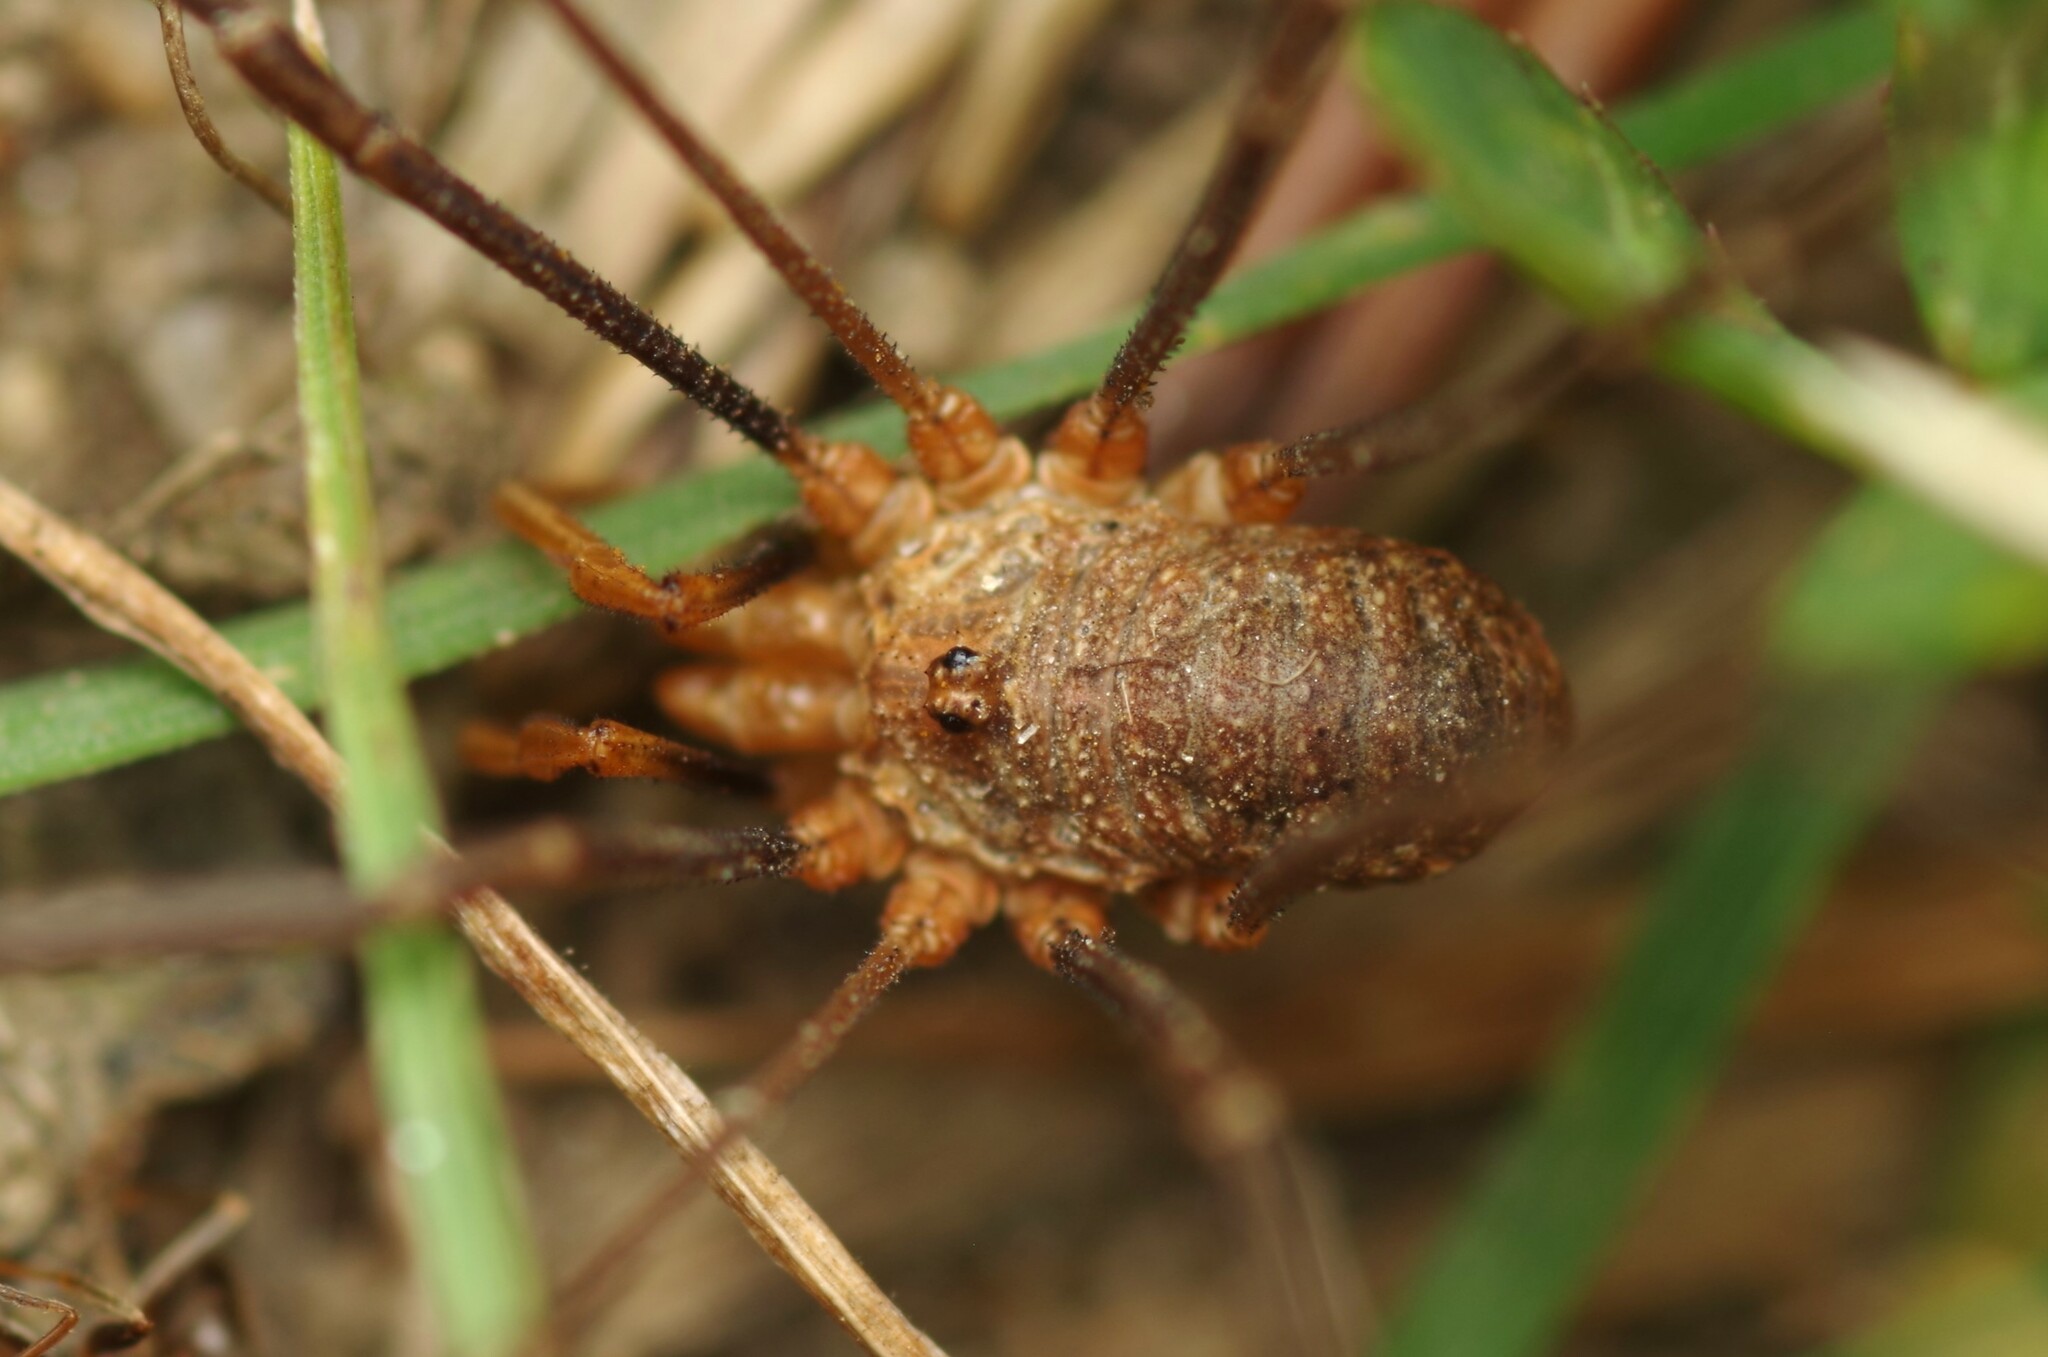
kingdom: Animalia
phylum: Arthropoda
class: Arachnida
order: Opiliones
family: Phalangiidae
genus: Phalangium
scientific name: Phalangium opilio
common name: Daddy longleg
